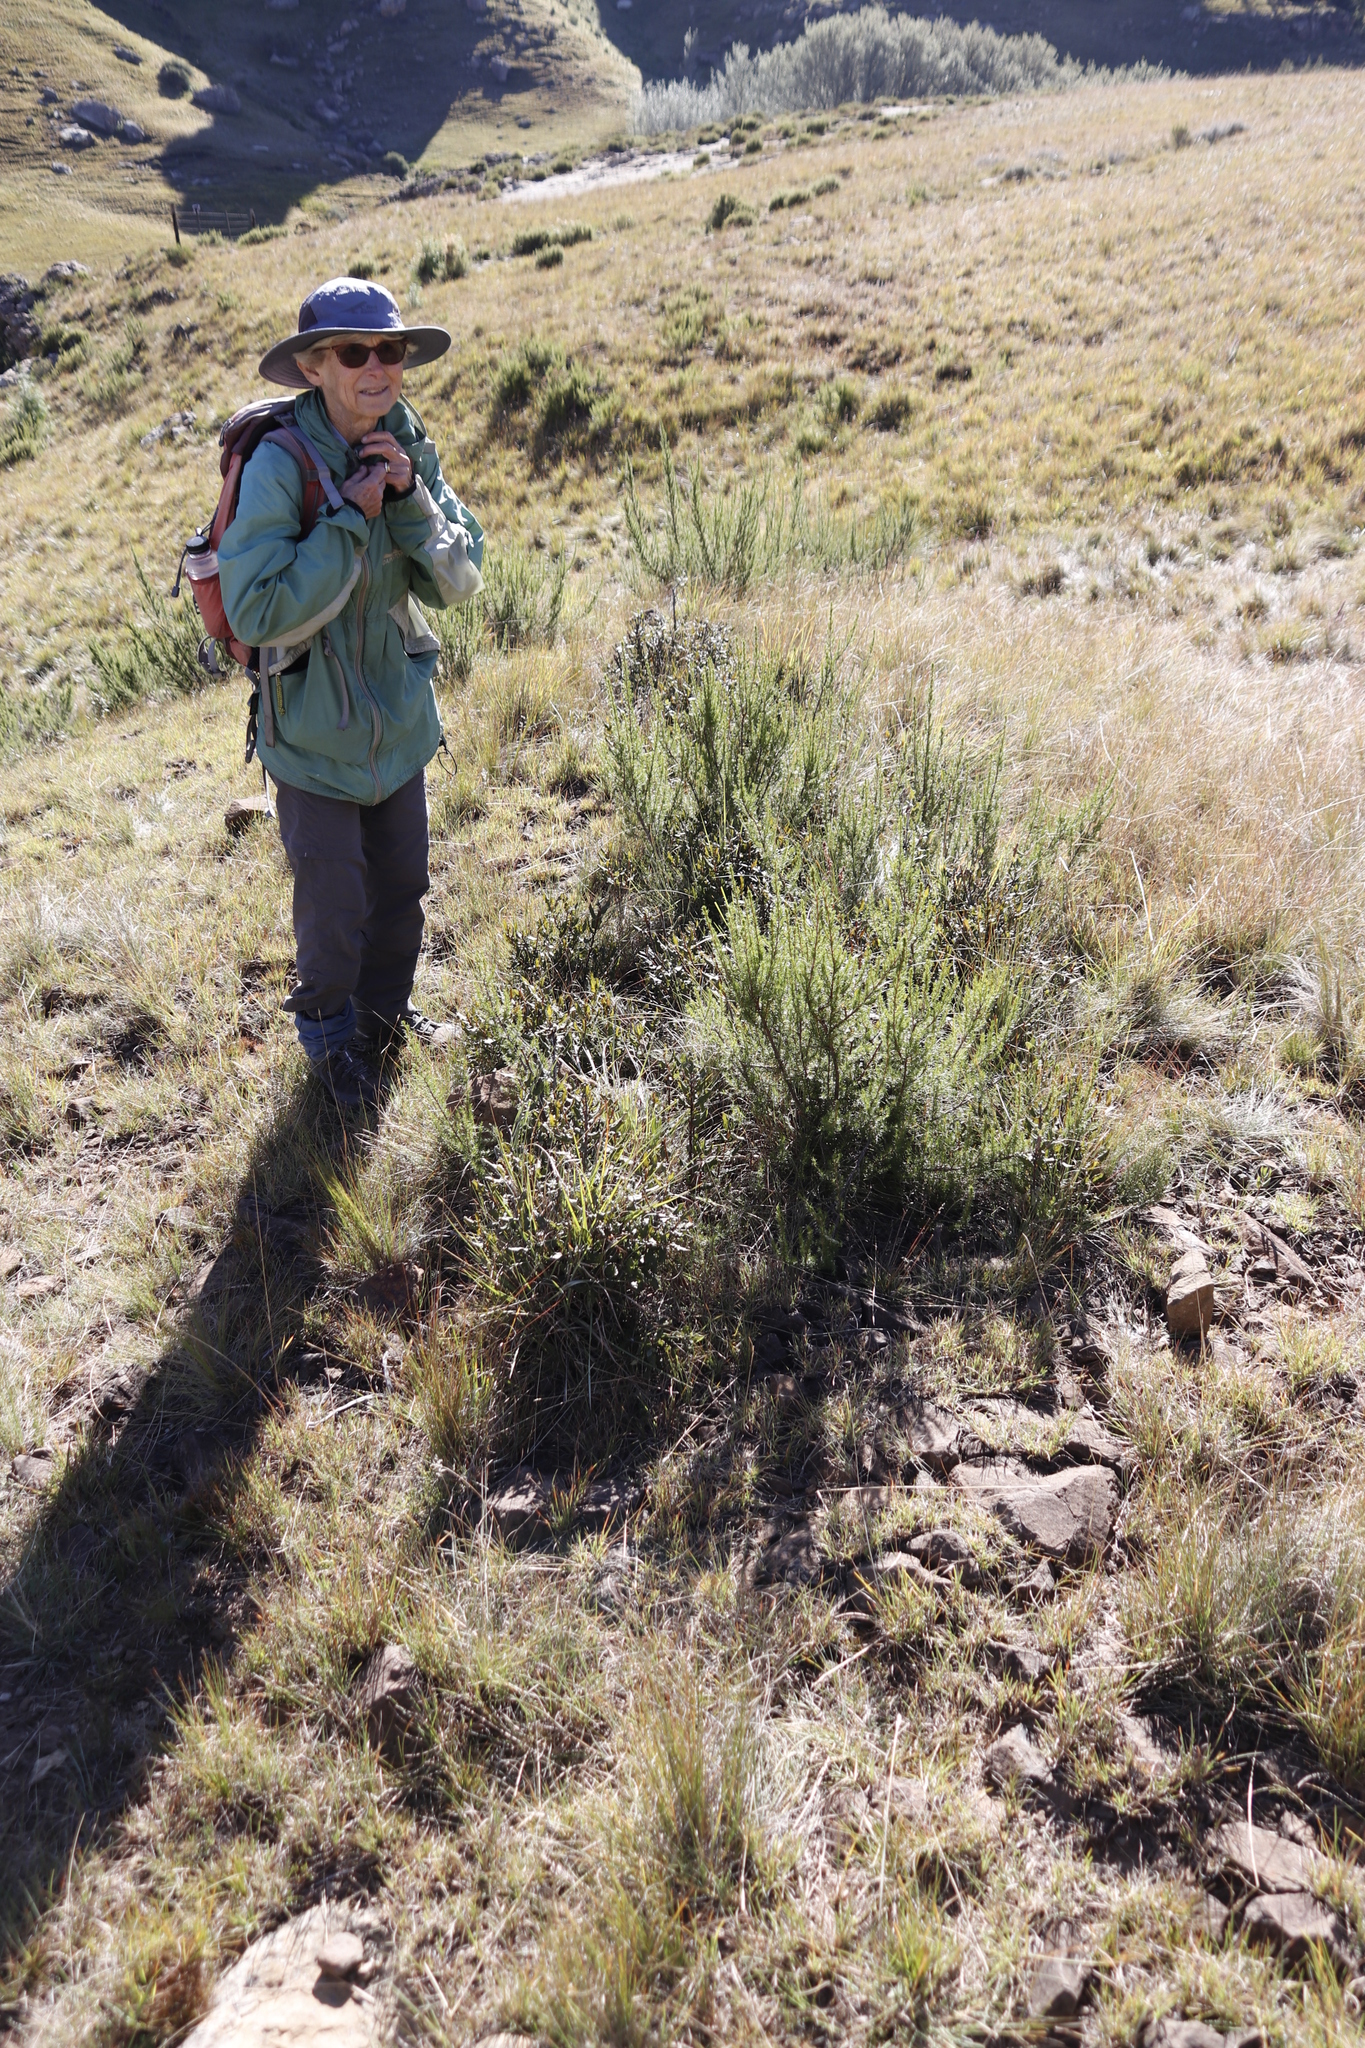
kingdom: Plantae
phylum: Tracheophyta
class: Magnoliopsida
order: Ericales
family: Ebenaceae
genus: Euclea
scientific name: Euclea coriacea
